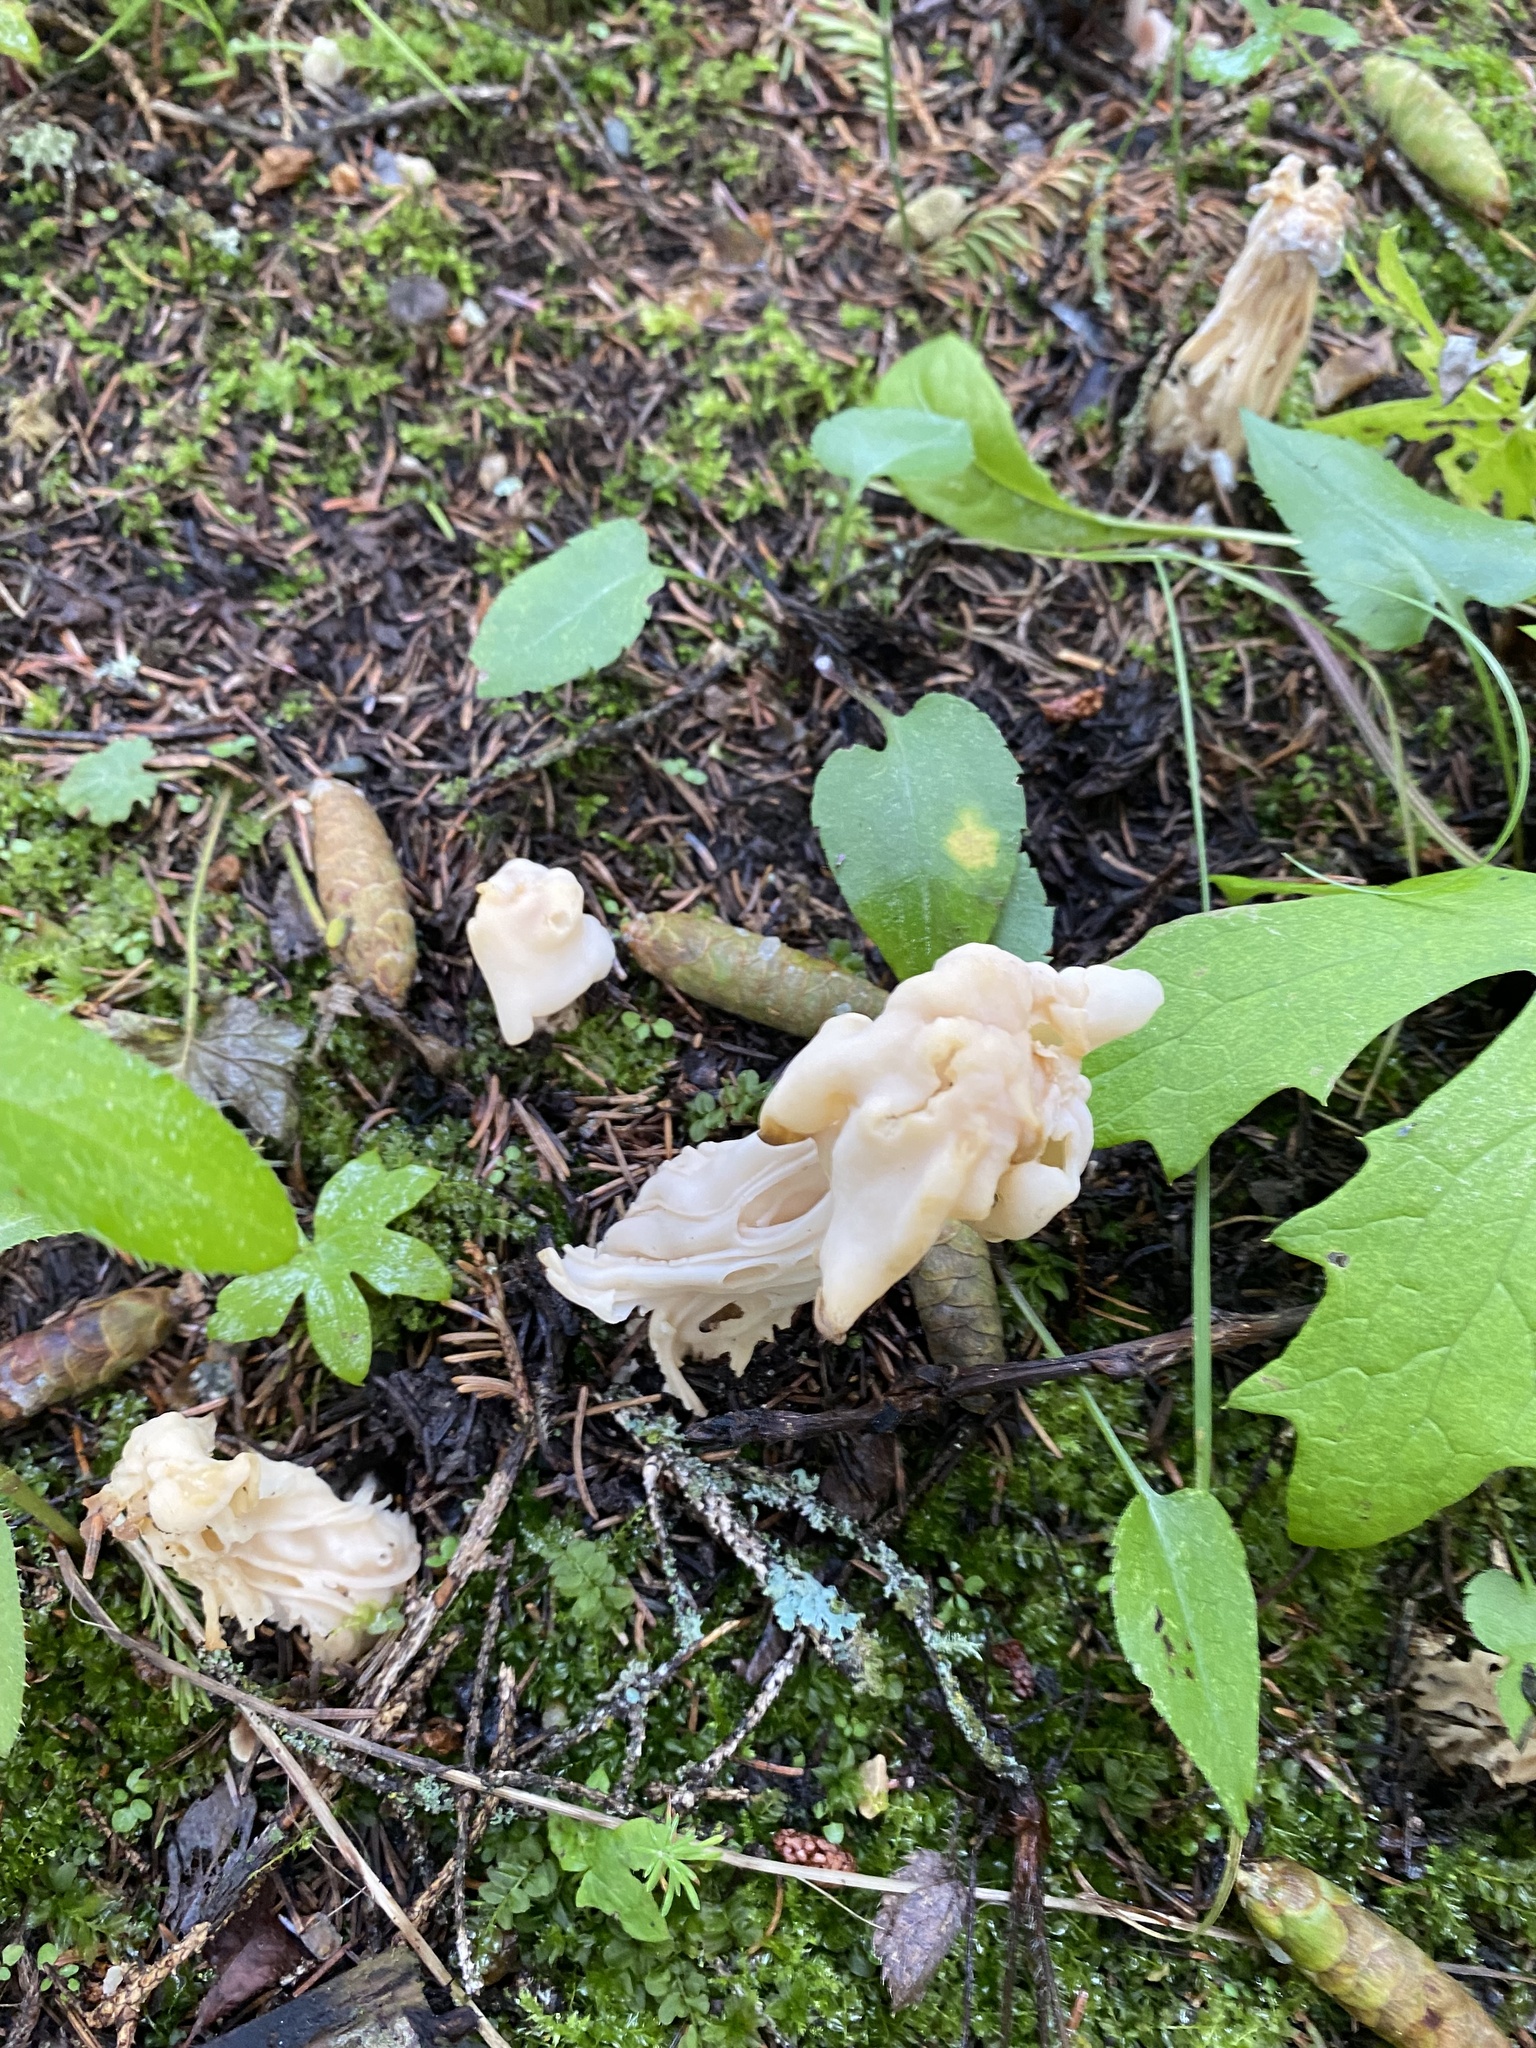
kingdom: Fungi
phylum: Ascomycota
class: Pezizomycetes
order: Pezizales
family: Helvellaceae
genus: Helvella
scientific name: Helvella crispa
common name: White saddle
